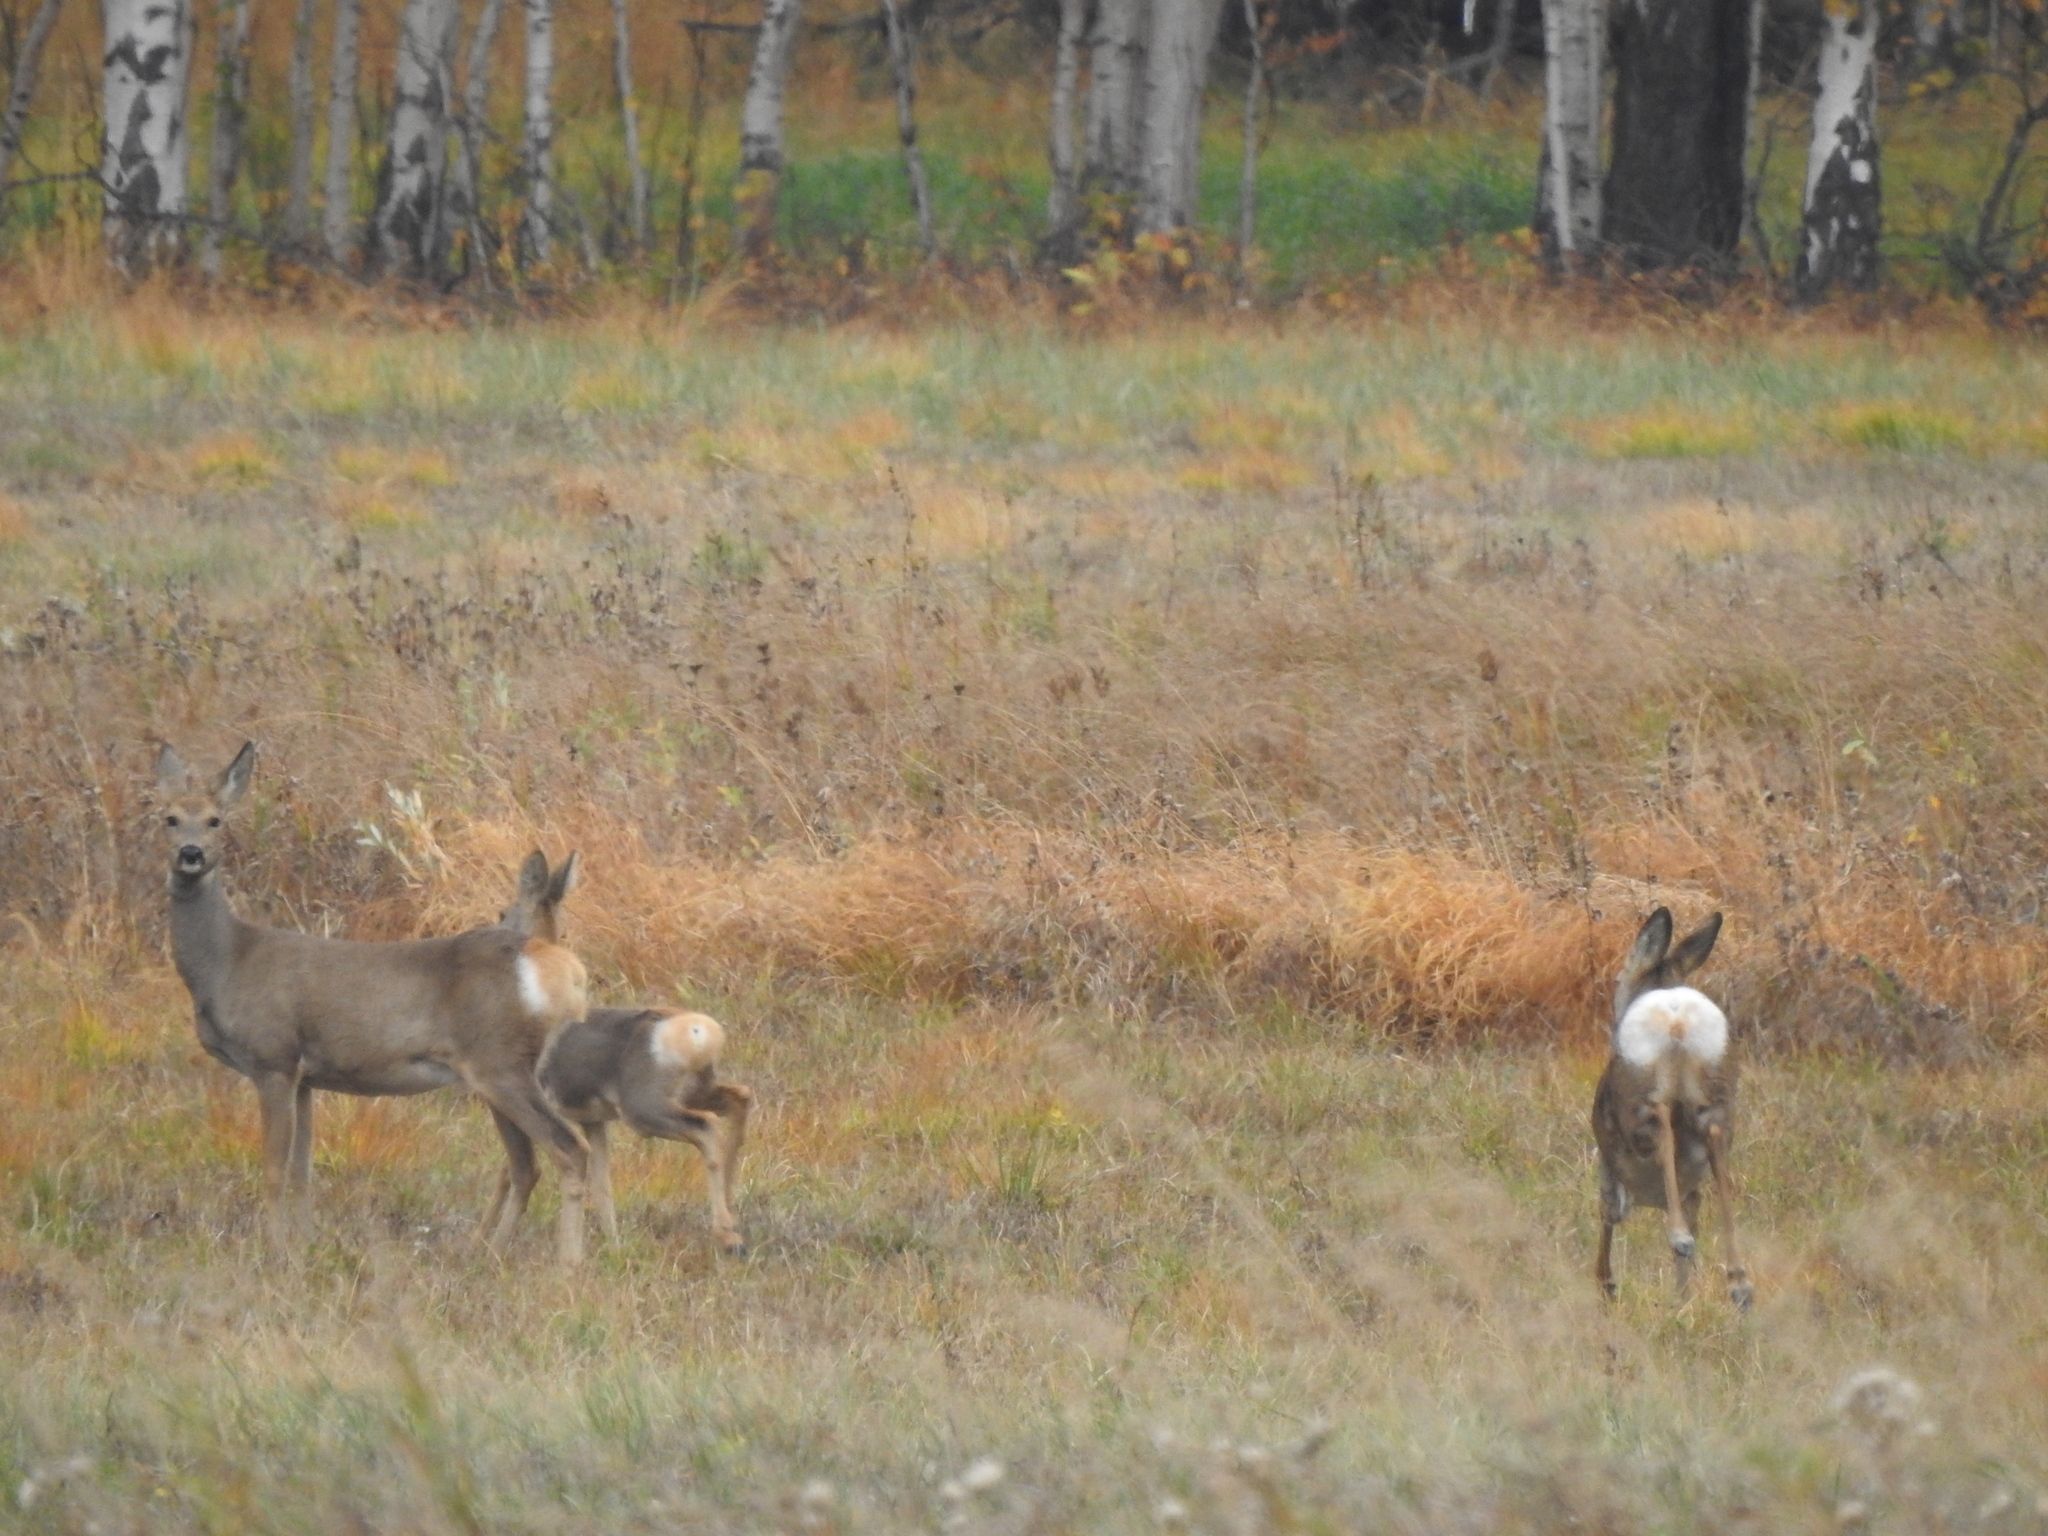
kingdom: Animalia
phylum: Chordata
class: Mammalia
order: Artiodactyla
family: Cervidae
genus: Capreolus
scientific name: Capreolus pygargus
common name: Siberian roe
